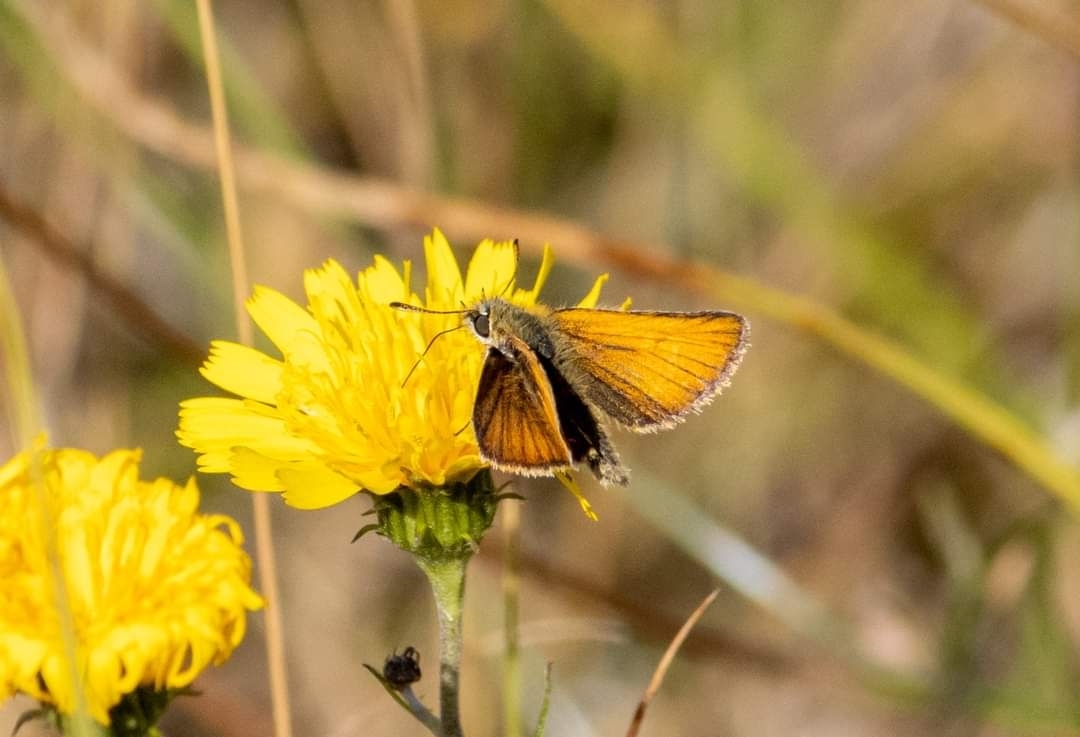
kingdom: Animalia
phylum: Arthropoda
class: Insecta
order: Lepidoptera
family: Hesperiidae
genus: Thymelicus
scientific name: Thymelicus lineola
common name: Essex skipper
